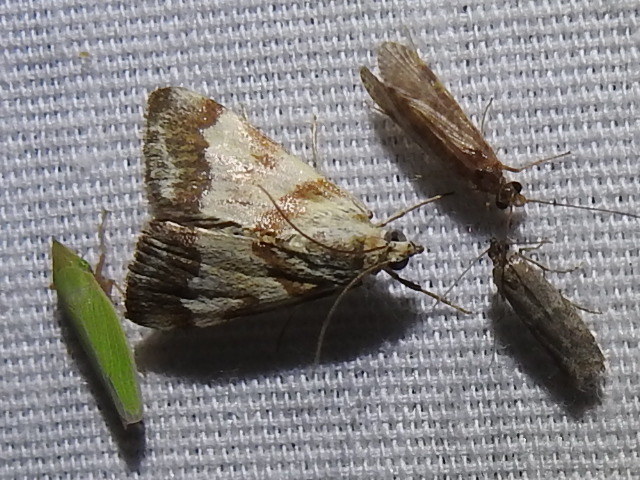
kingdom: Animalia
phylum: Arthropoda
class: Insecta
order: Lepidoptera
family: Crambidae
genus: Noctuelia
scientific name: Noctuelia Mimoschinia rufofascialis
